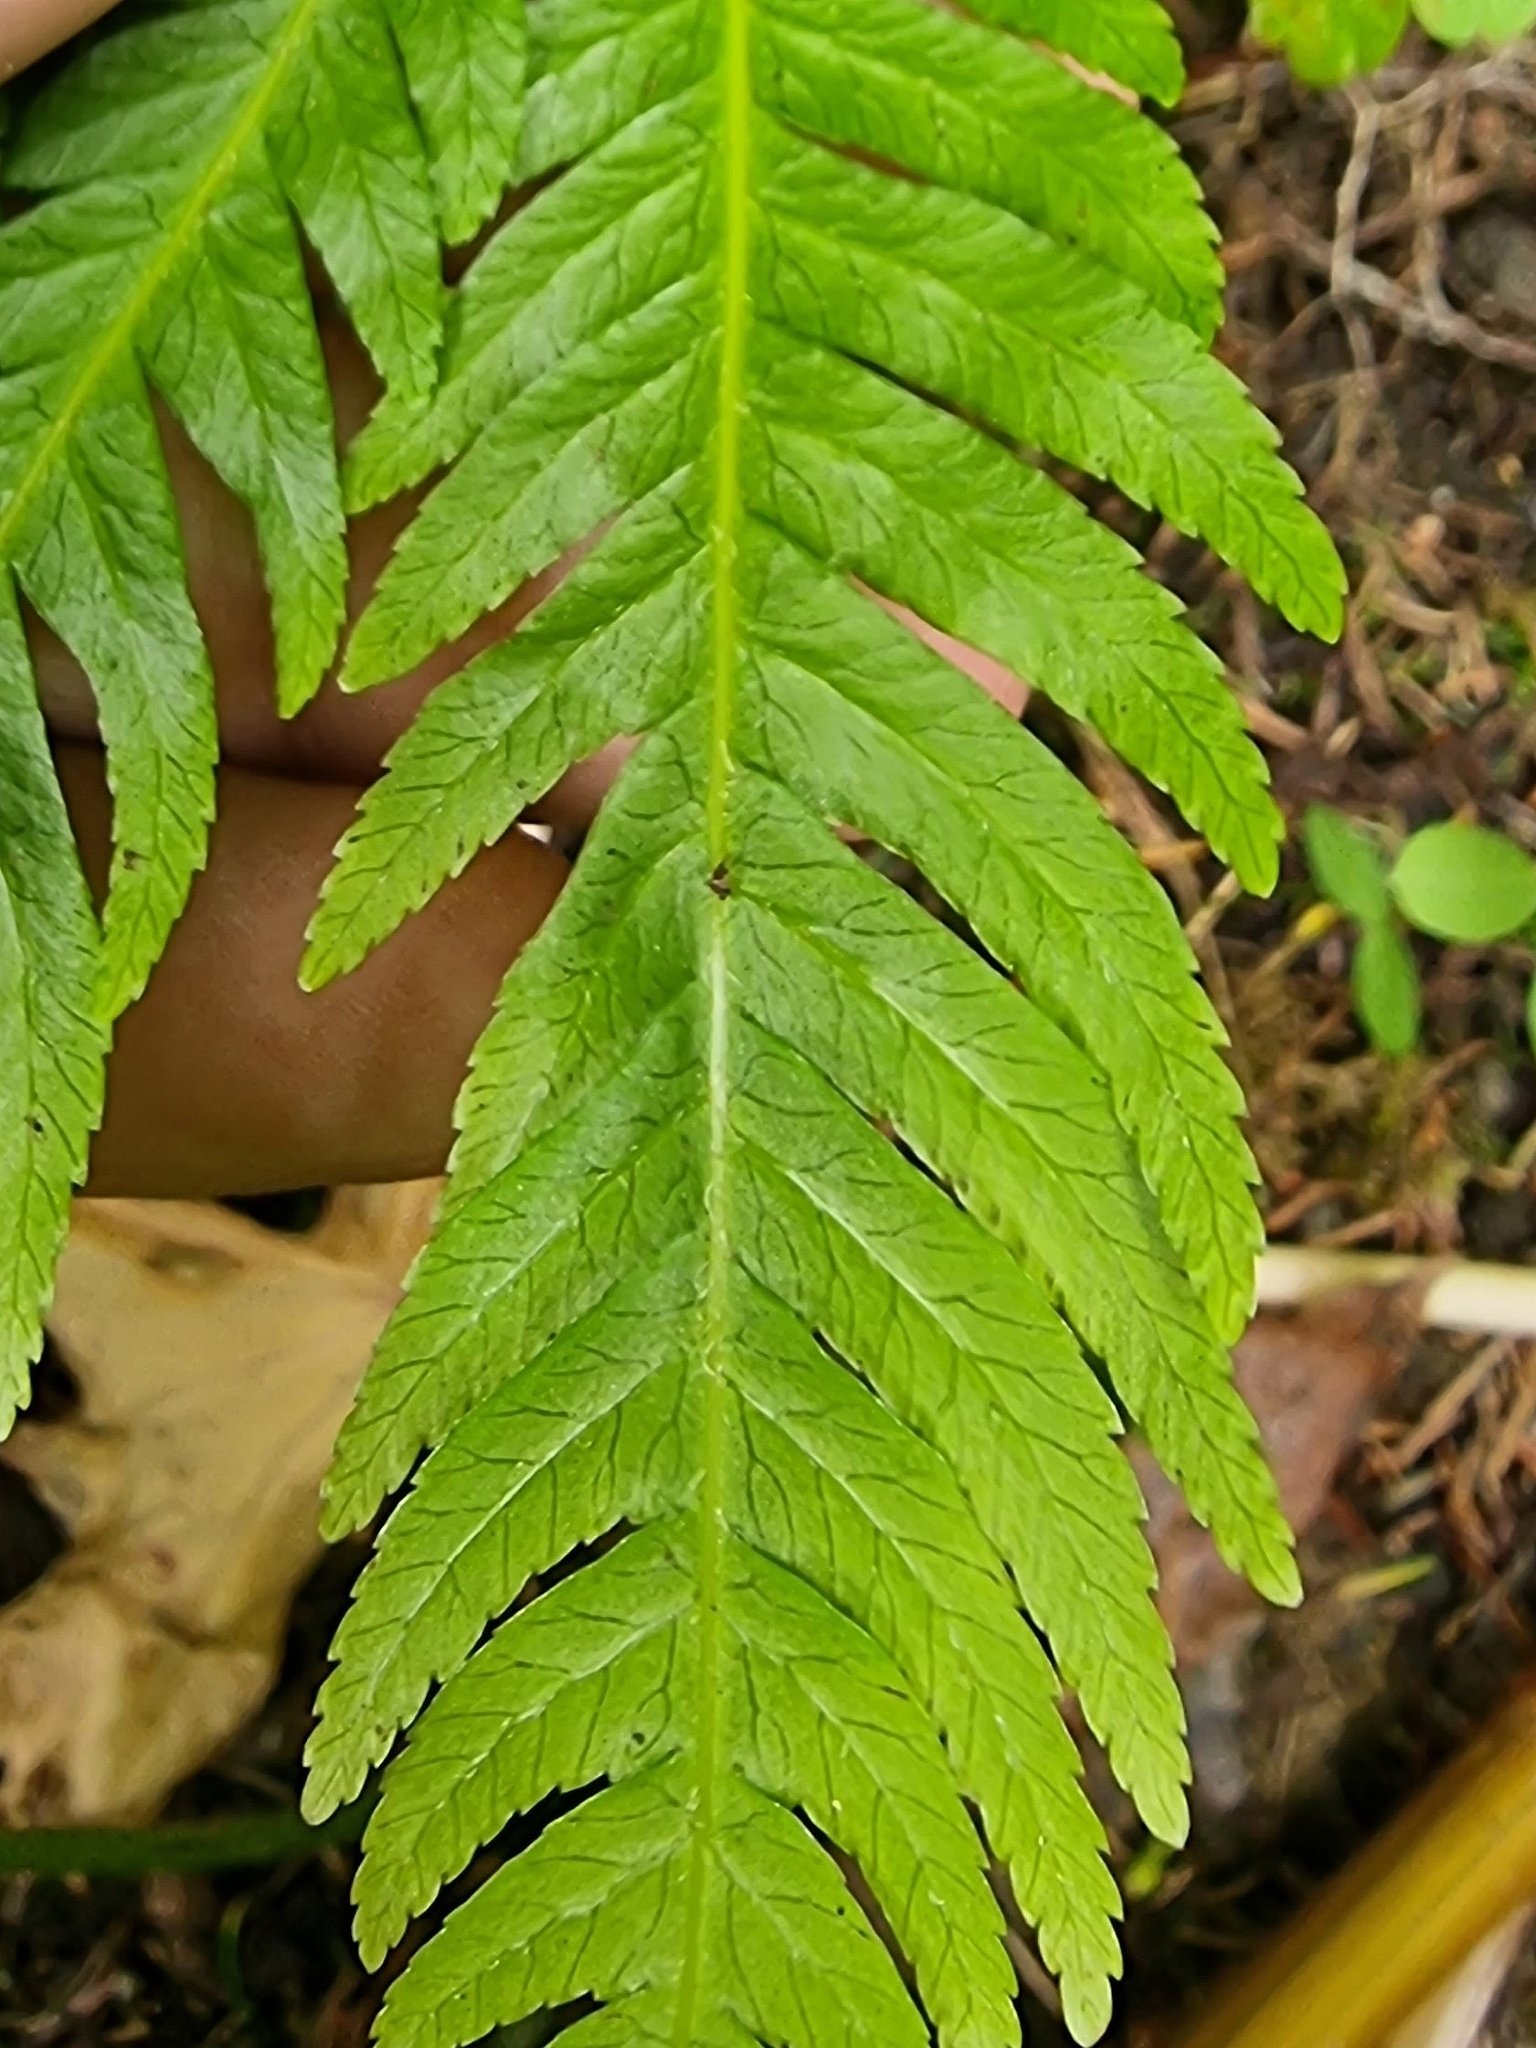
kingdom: Plantae
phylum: Tracheophyta
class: Polypodiopsida
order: Polypodiales
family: Pteridaceae
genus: Pteris
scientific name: Pteris incompleta
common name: Laurisilva brake
